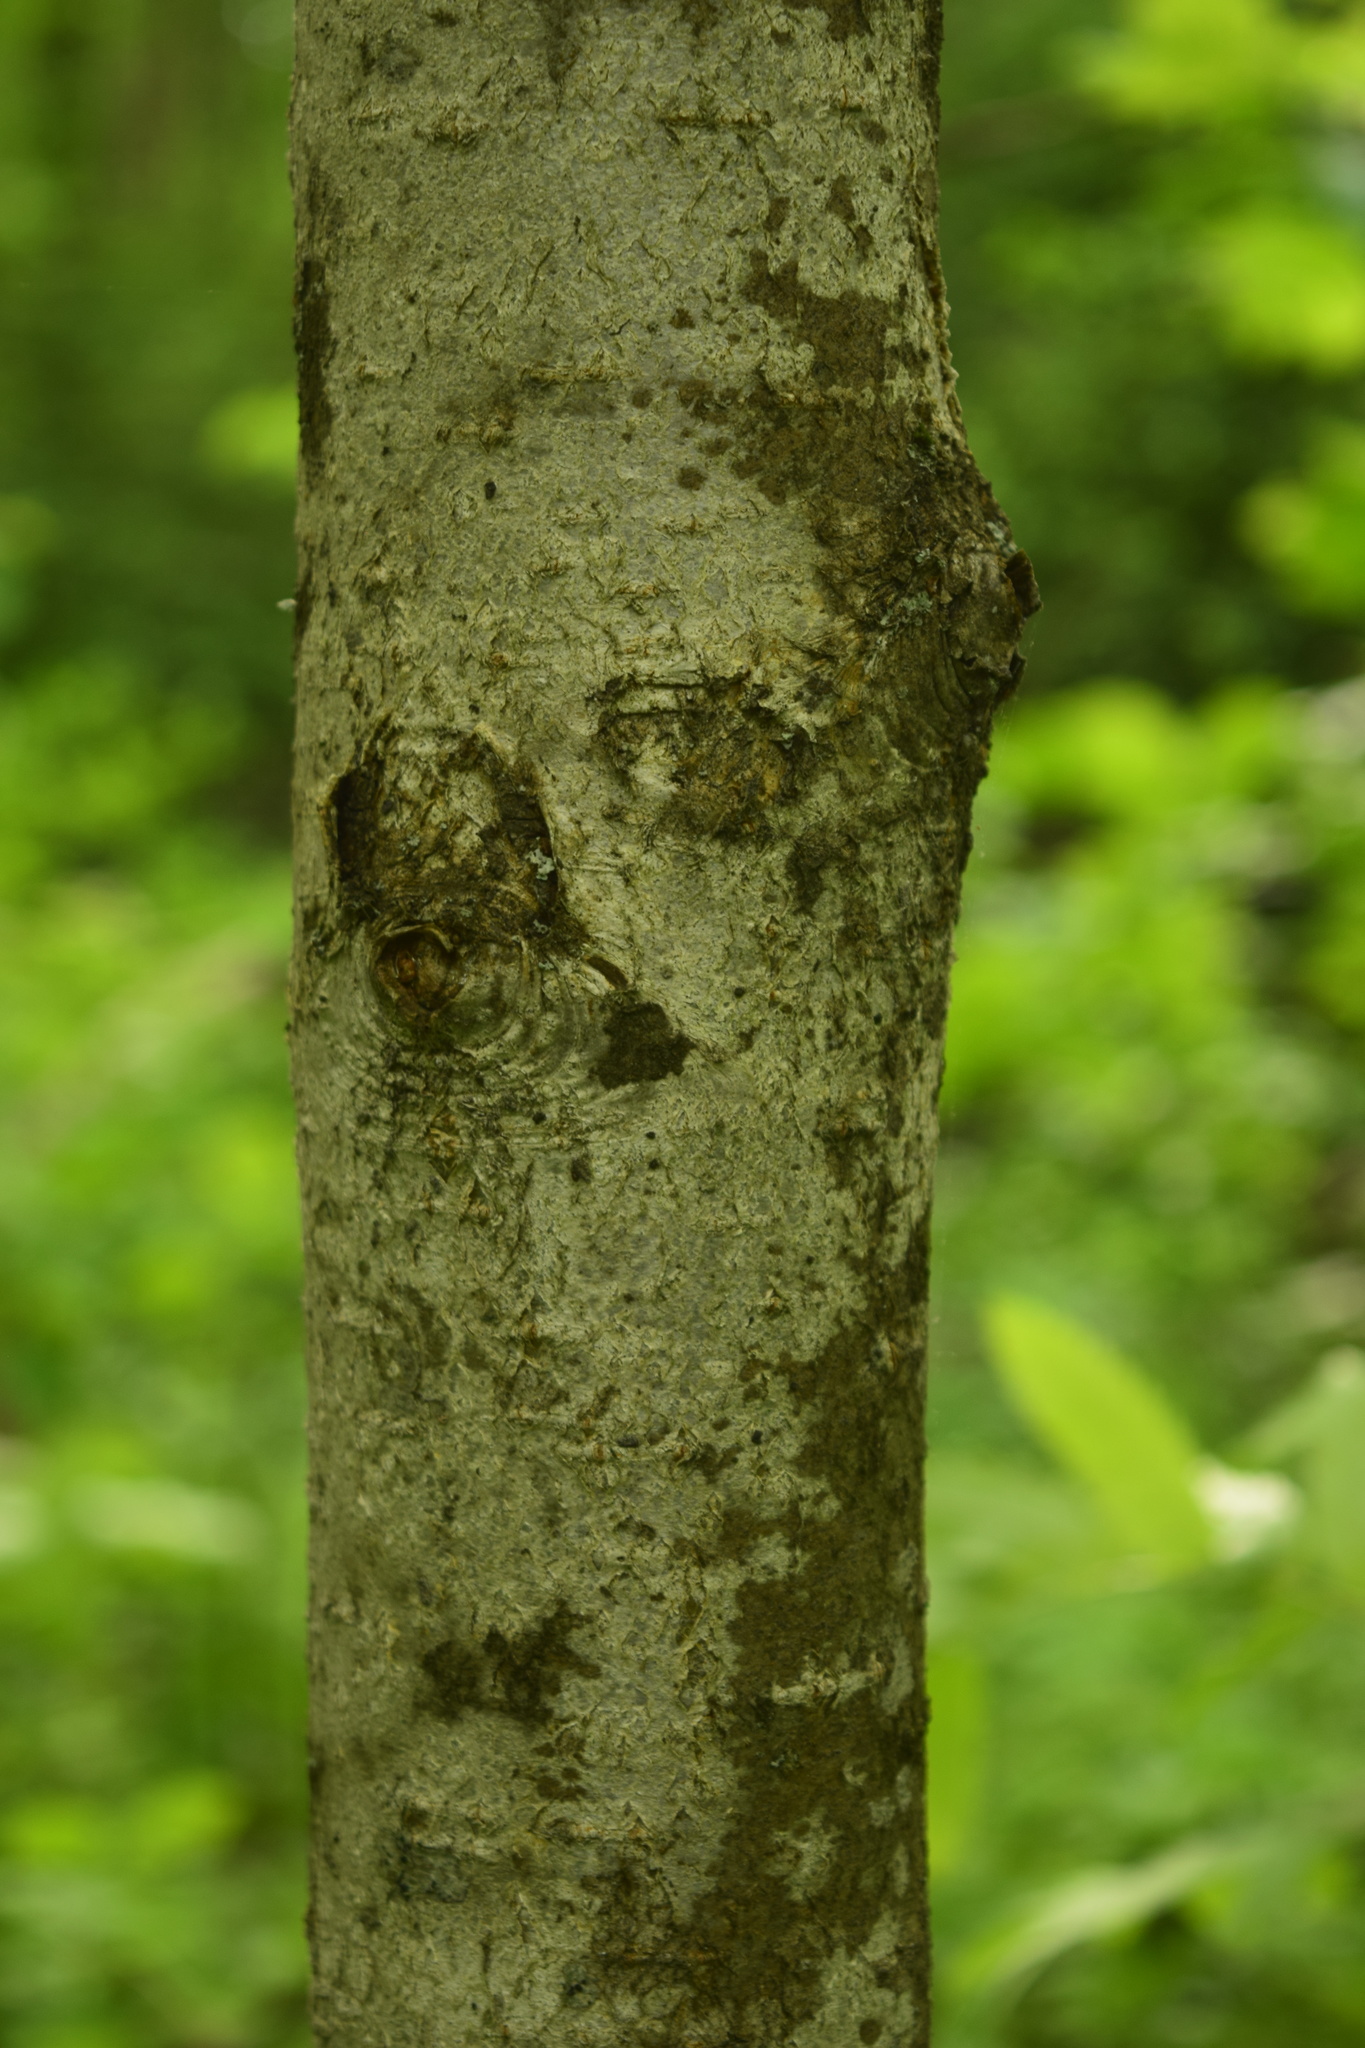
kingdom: Plantae
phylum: Tracheophyta
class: Magnoliopsida
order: Rosales
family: Rosaceae
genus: Sorbus
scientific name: Sorbus aucuparia
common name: Rowan
